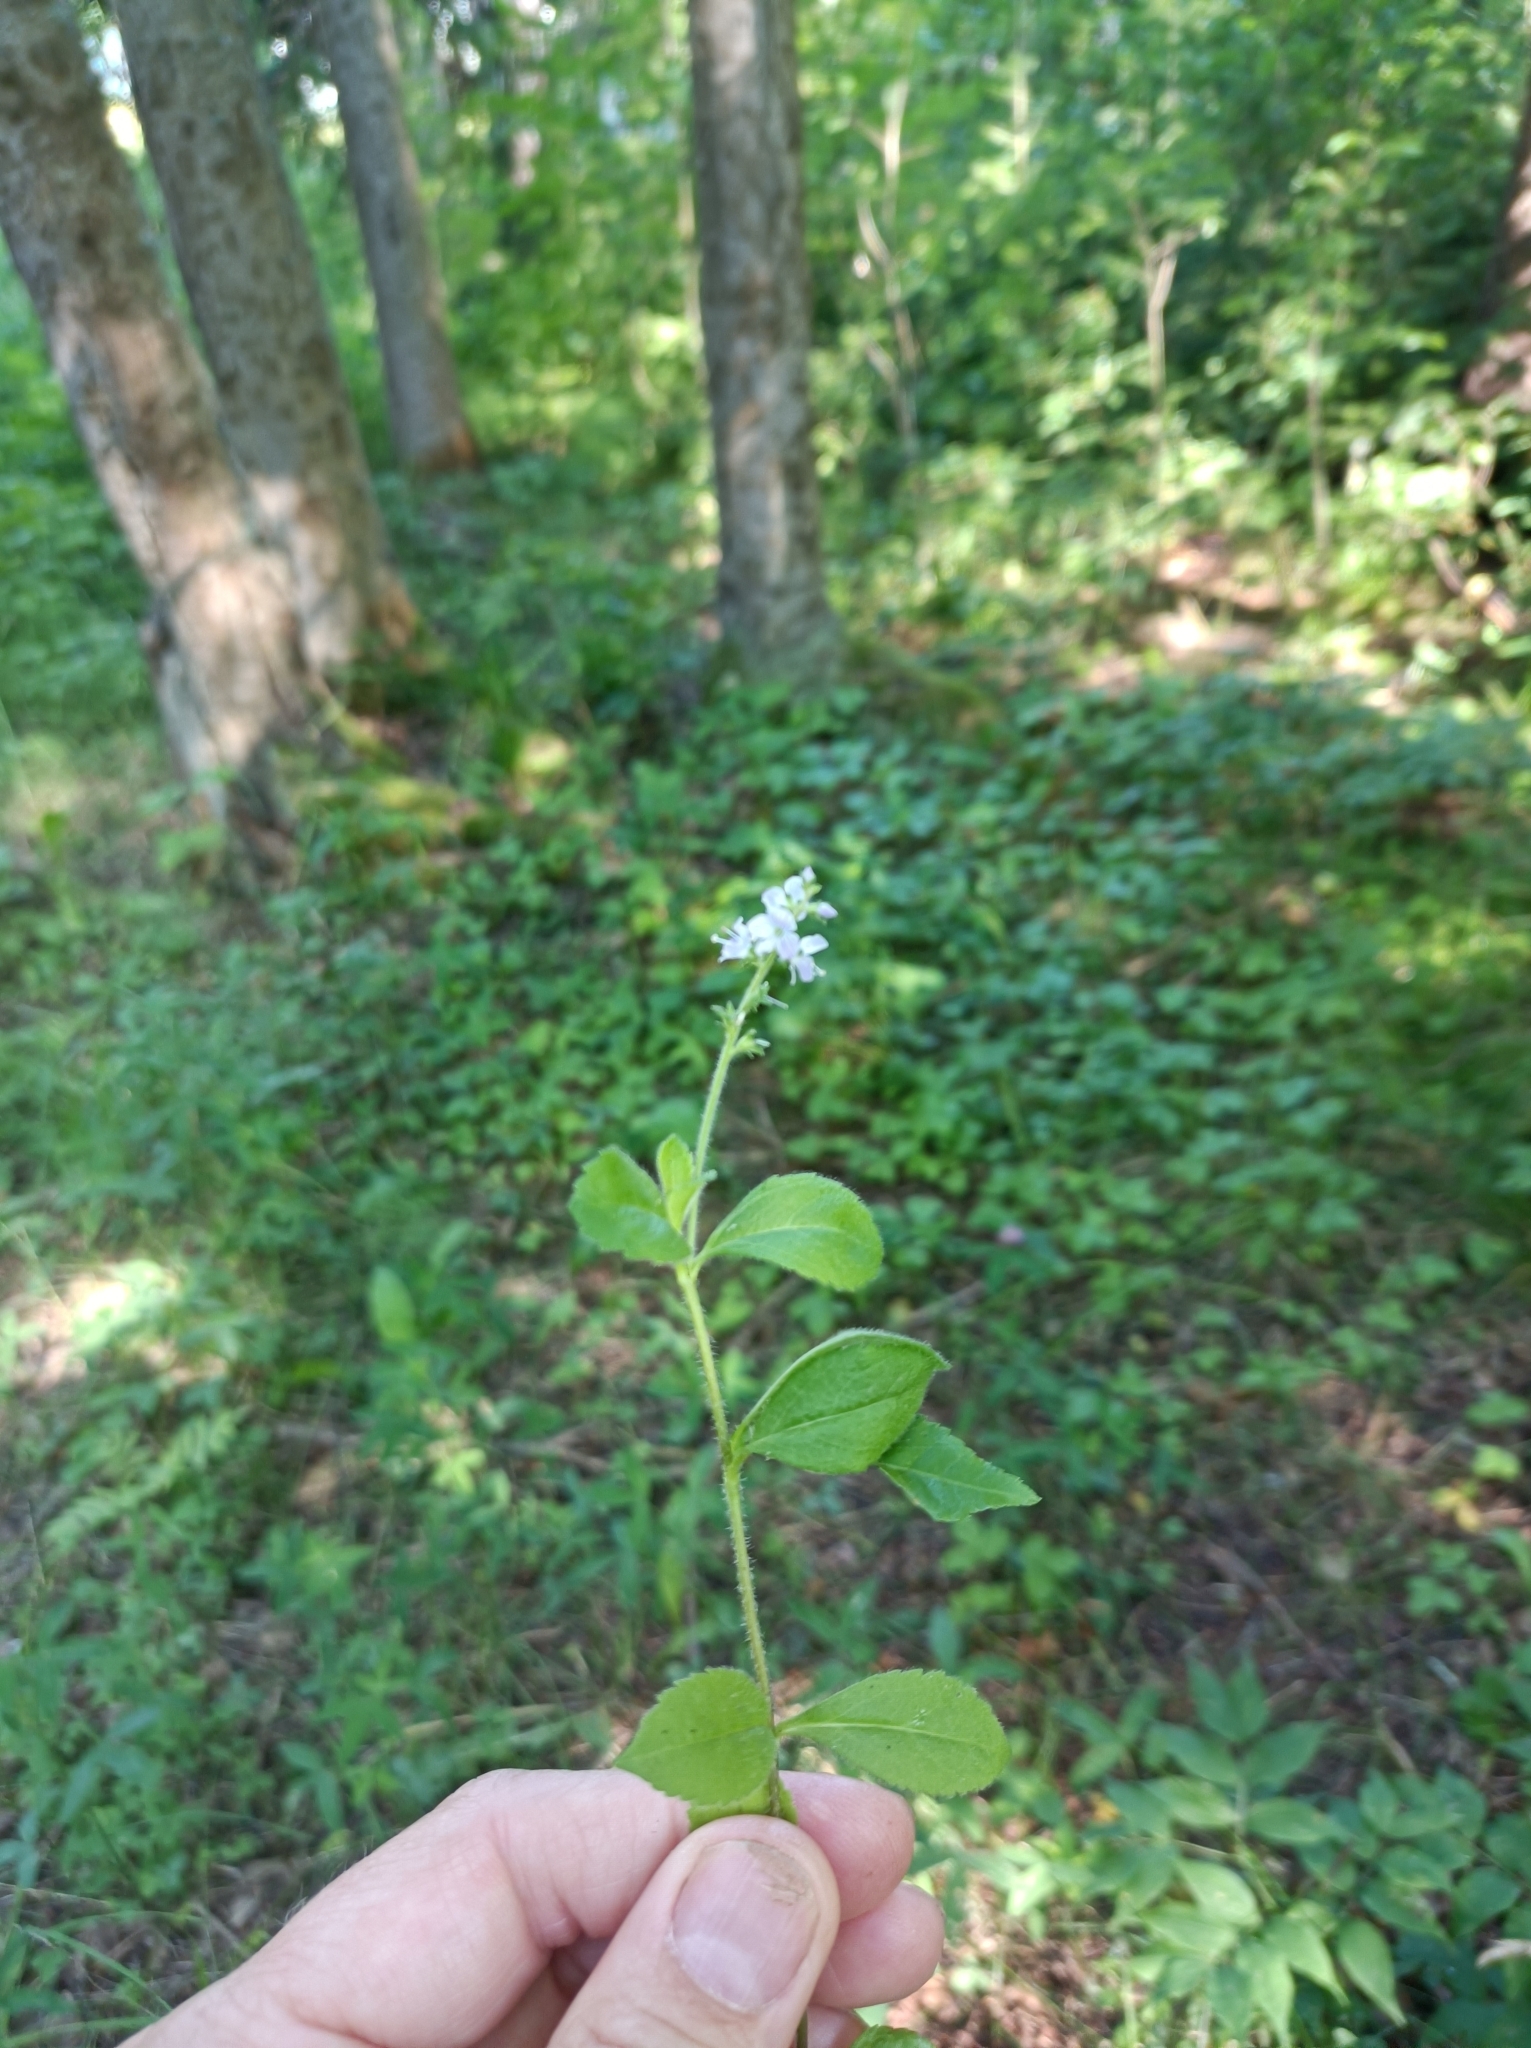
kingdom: Plantae
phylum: Tracheophyta
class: Magnoliopsida
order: Lamiales
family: Plantaginaceae
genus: Veronica
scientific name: Veronica officinalis
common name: Common speedwell
